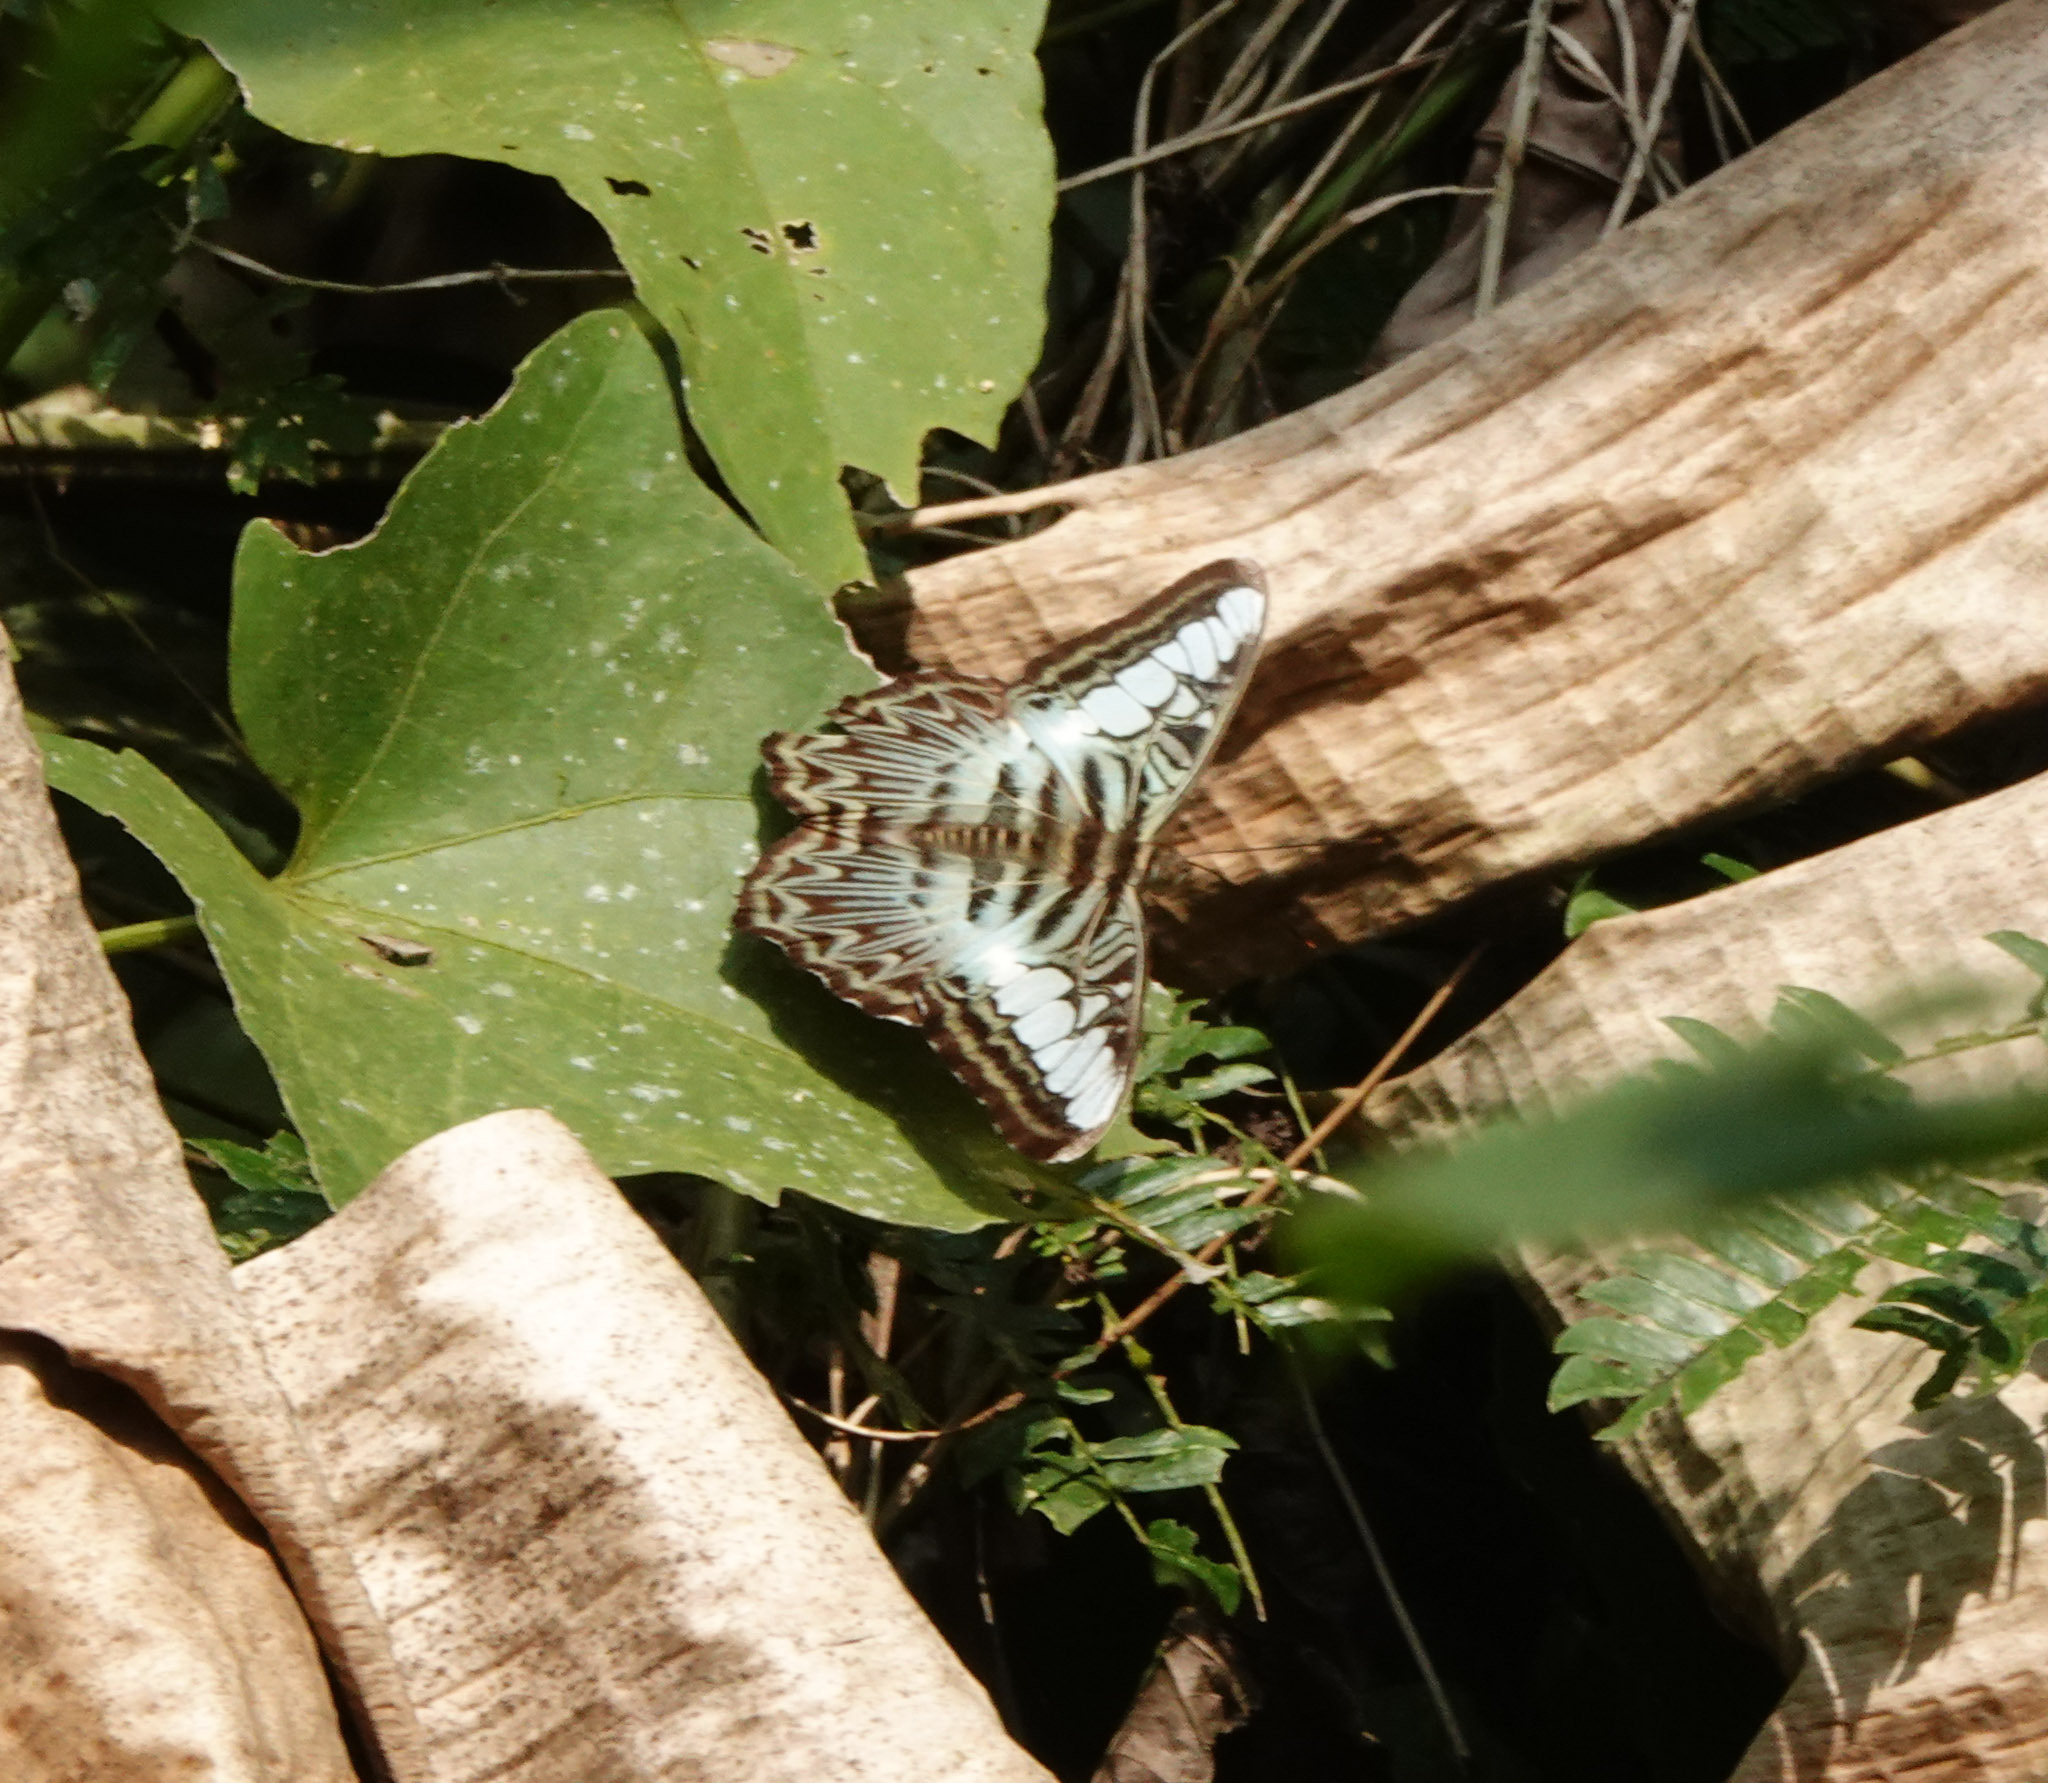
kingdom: Animalia
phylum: Arthropoda
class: Insecta
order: Lepidoptera
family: Nymphalidae
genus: Kallima
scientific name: Kallima sylvia
